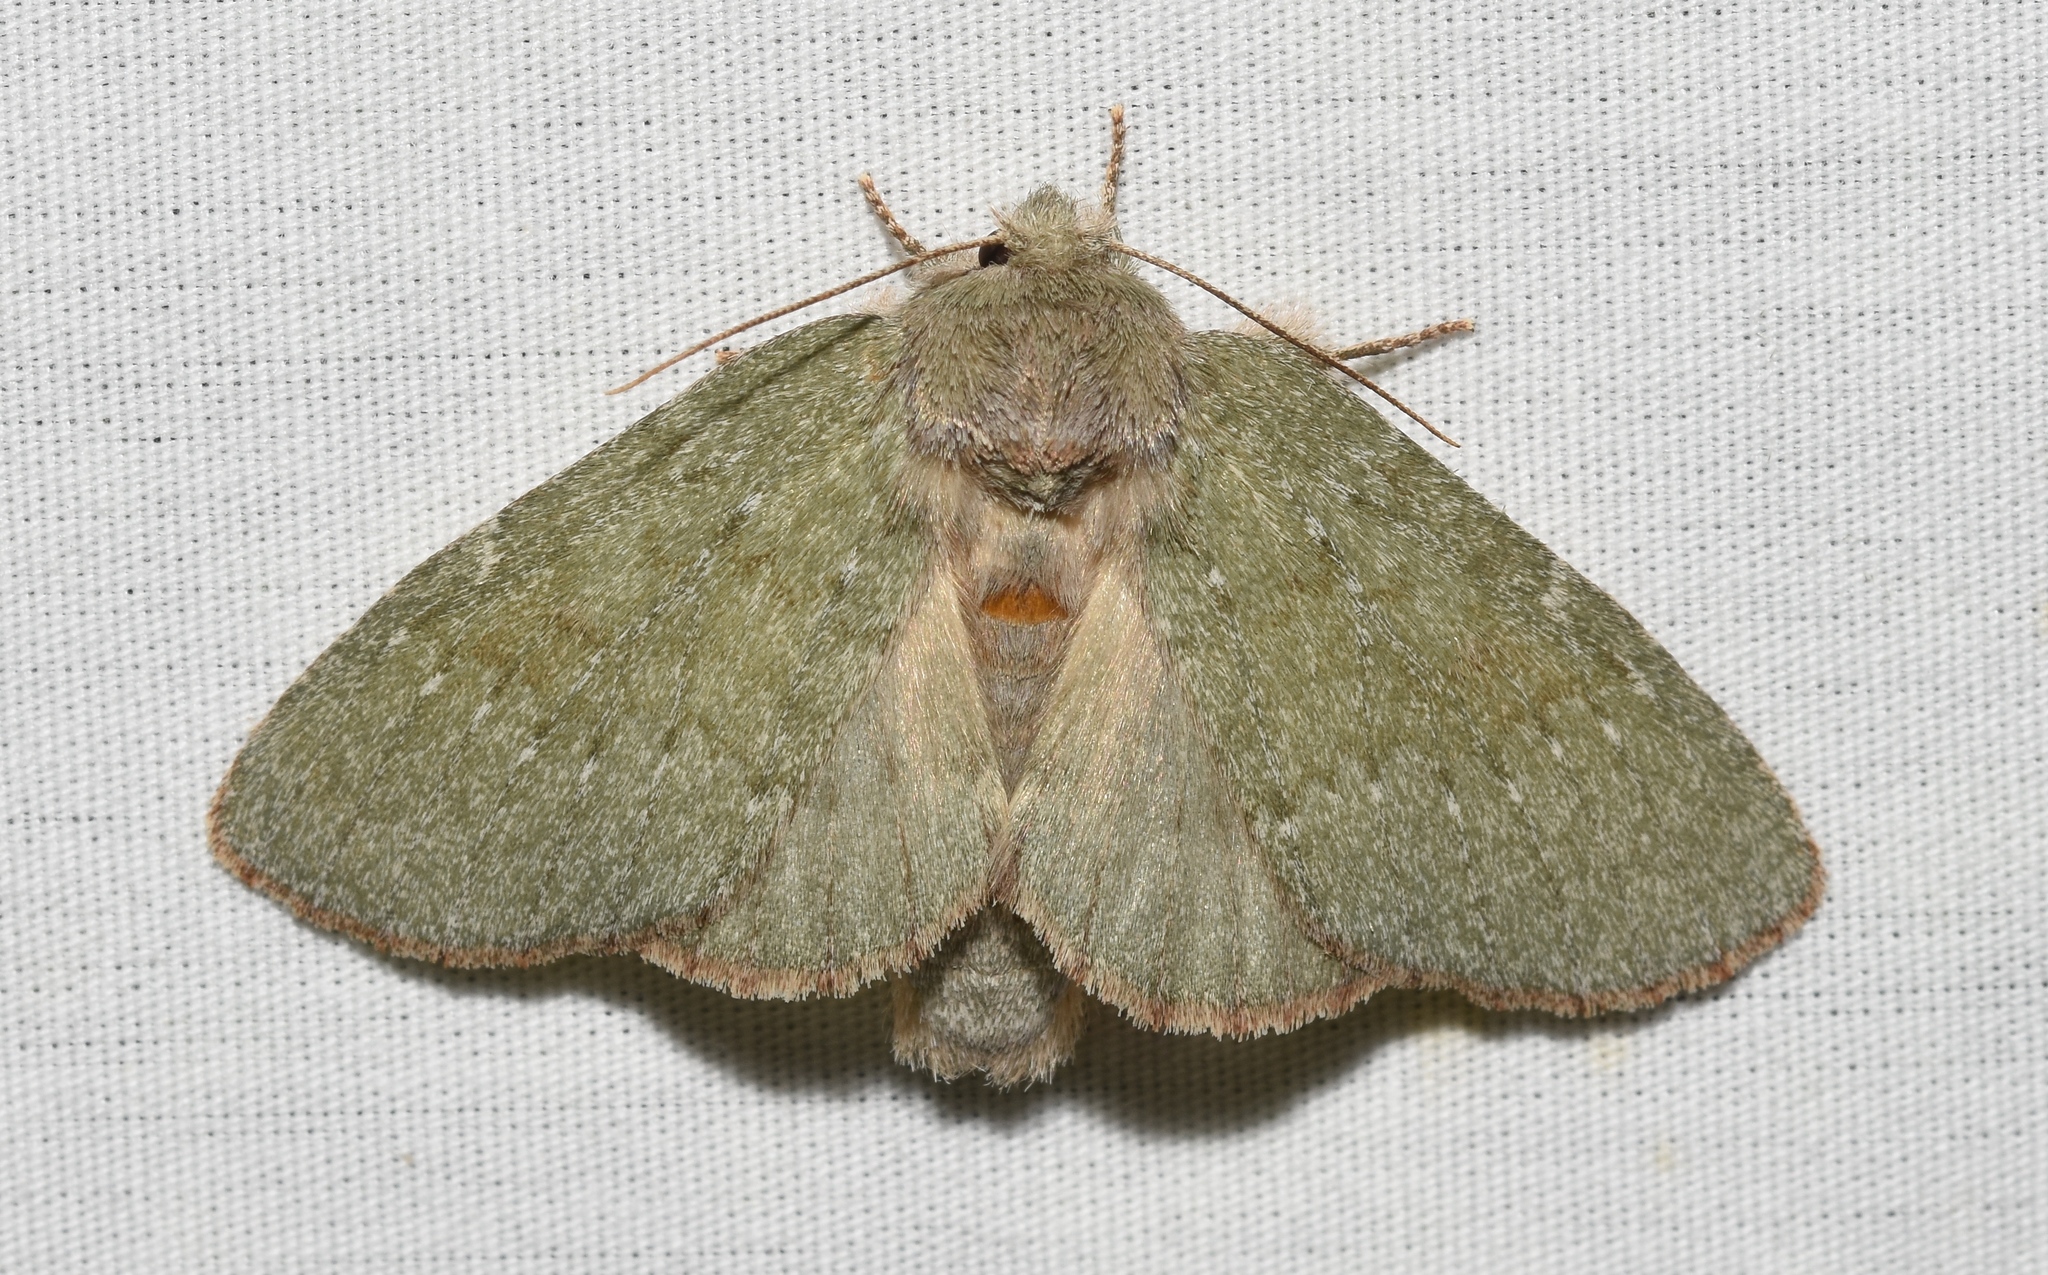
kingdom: Animalia
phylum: Arthropoda
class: Insecta
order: Lepidoptera
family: Notodontidae
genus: Misogada
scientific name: Misogada unicolor
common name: Drab prominent
